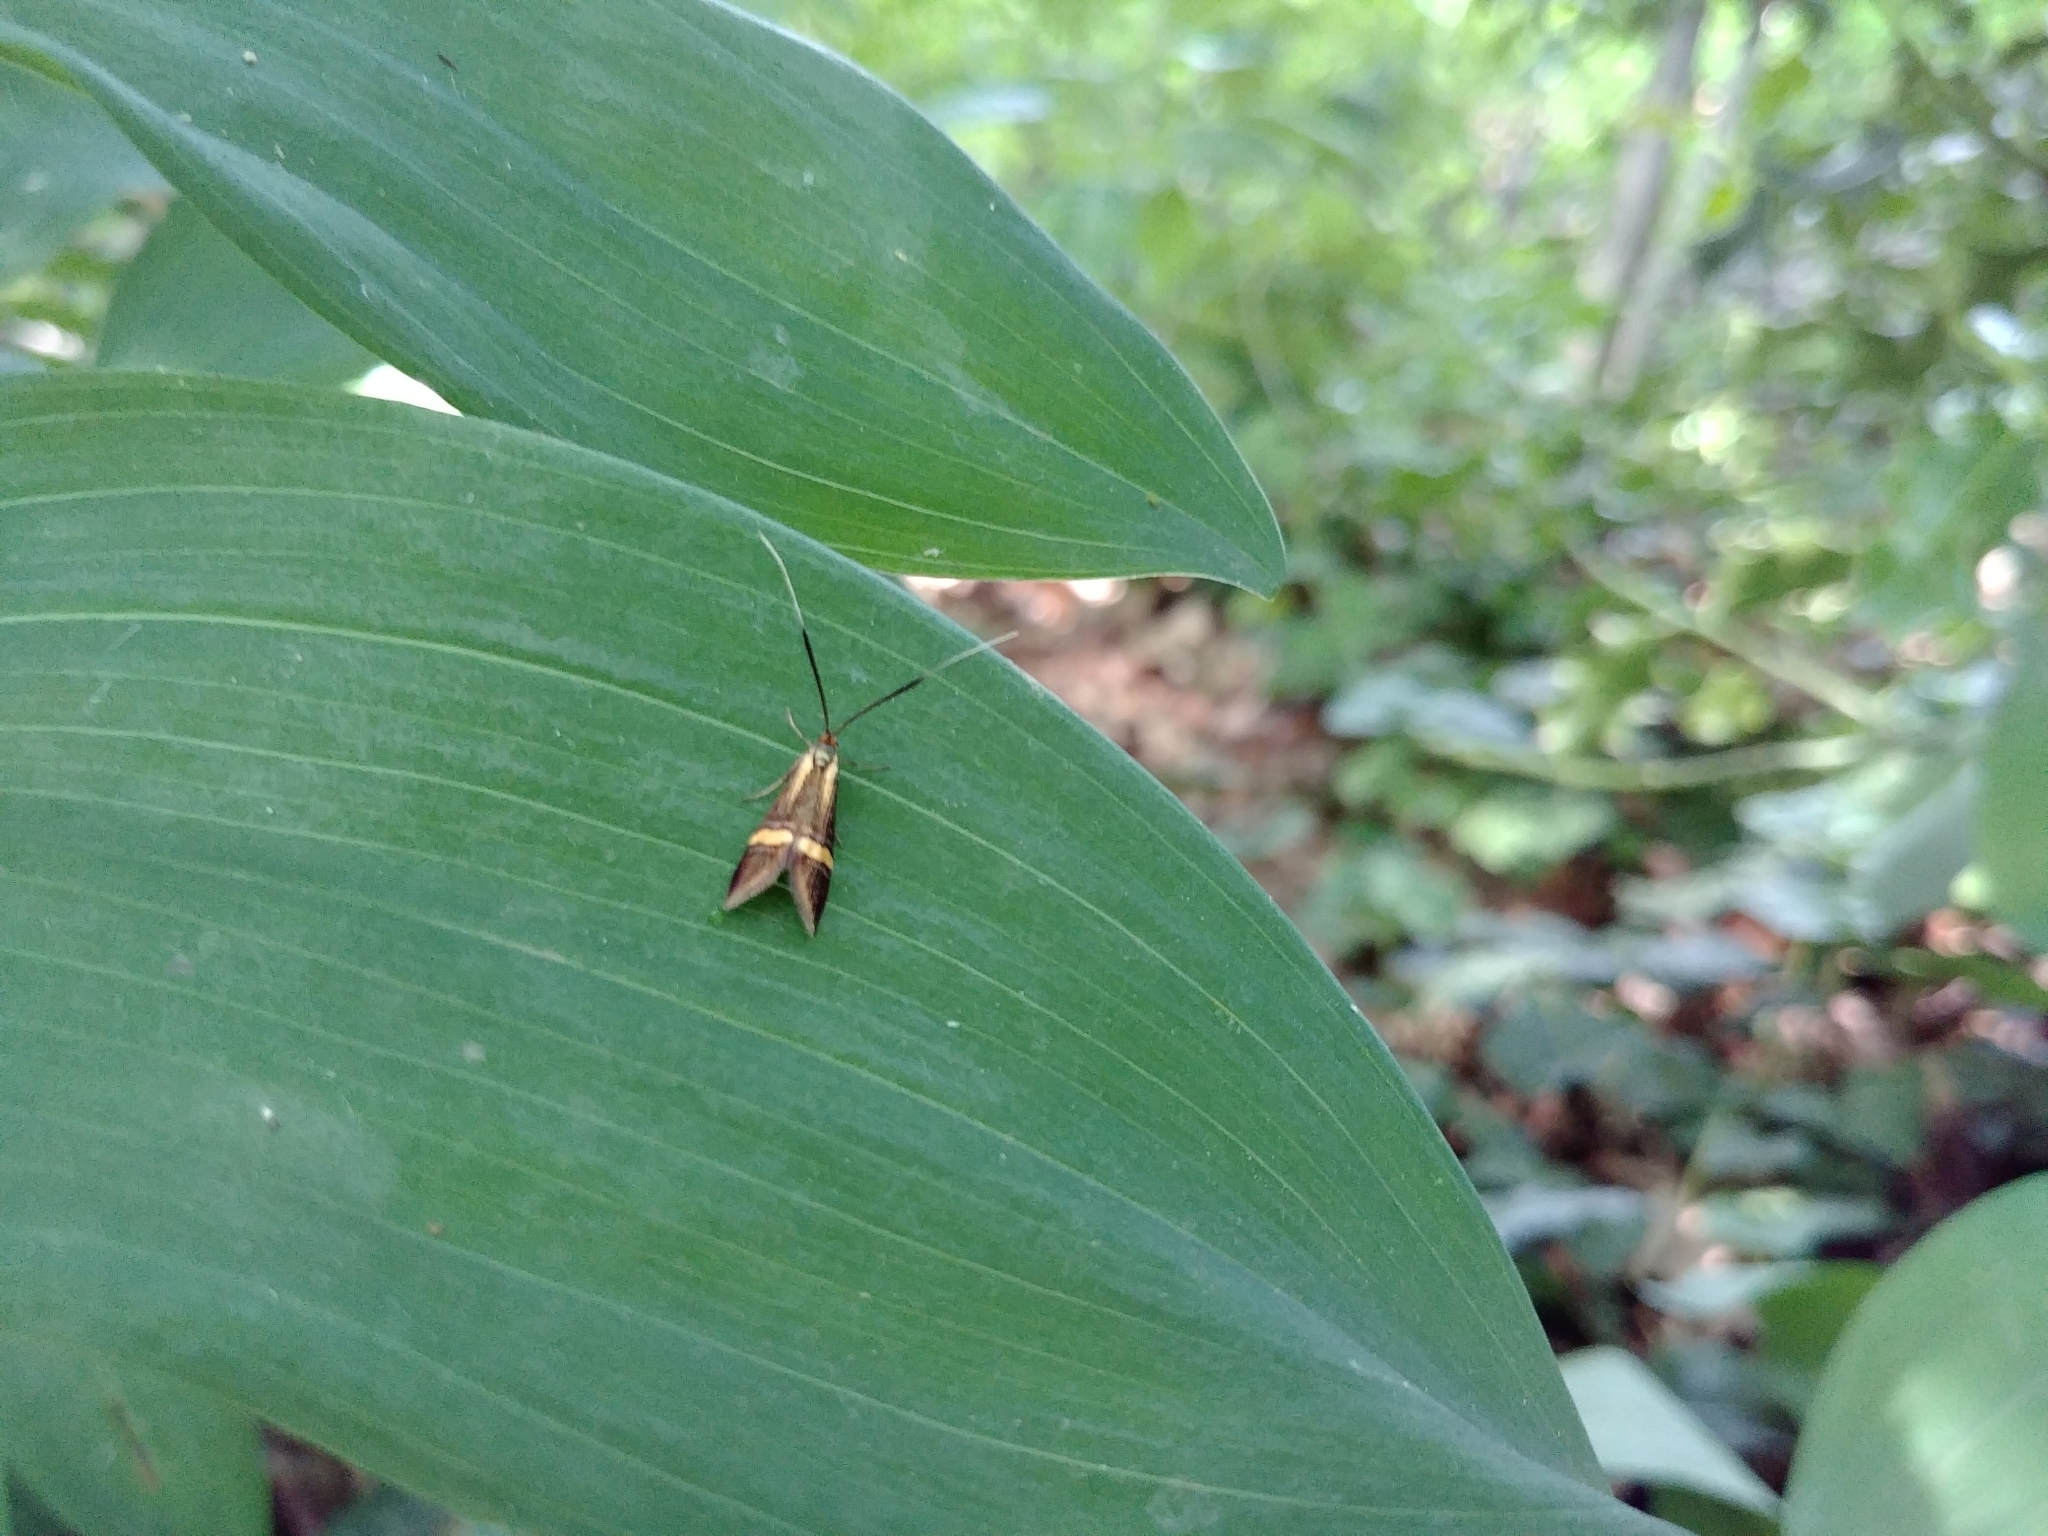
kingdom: Animalia
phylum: Arthropoda
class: Insecta
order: Lepidoptera
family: Adelidae
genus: Nemophora
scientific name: Nemophora degeerella
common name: Yellow-barred long-horn
